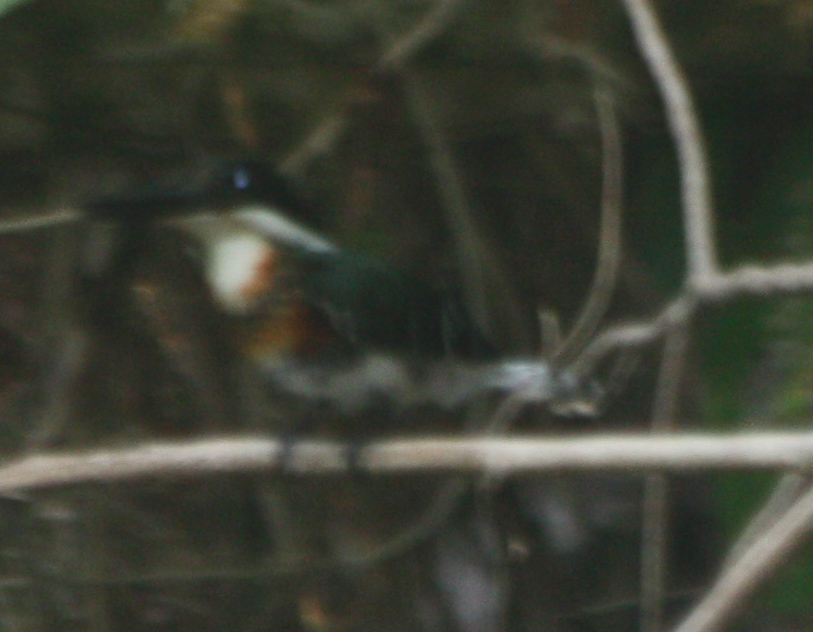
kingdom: Animalia
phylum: Chordata
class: Aves
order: Coraciiformes
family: Alcedinidae
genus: Chloroceryle
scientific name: Chloroceryle americana
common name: Green kingfisher
